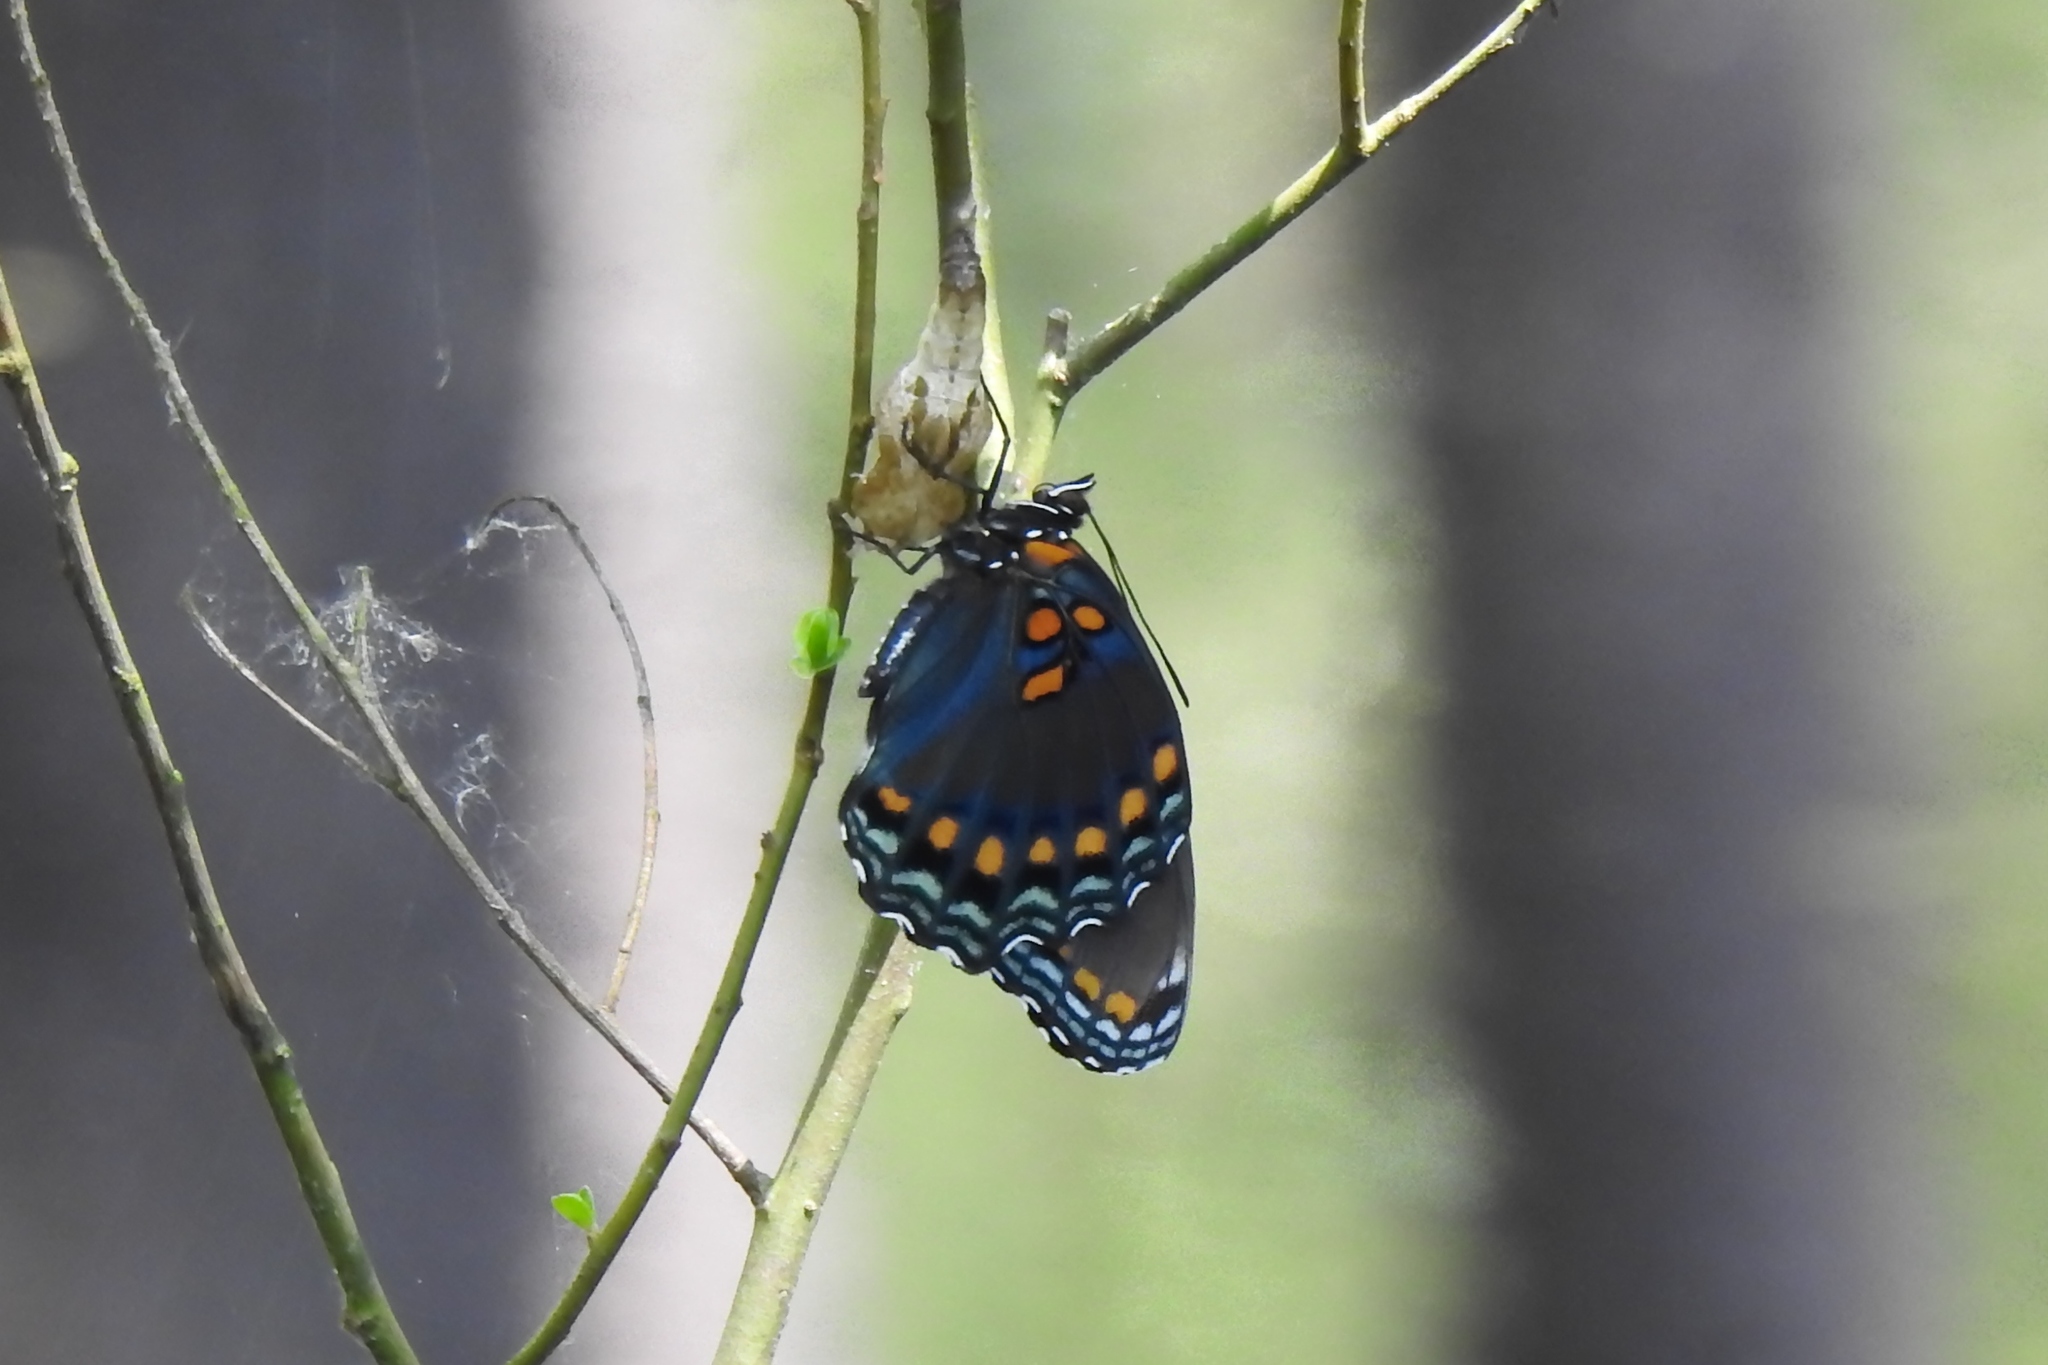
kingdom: Animalia
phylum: Arthropoda
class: Insecta
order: Lepidoptera
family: Nymphalidae
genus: Limenitis
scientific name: Limenitis astyanax
